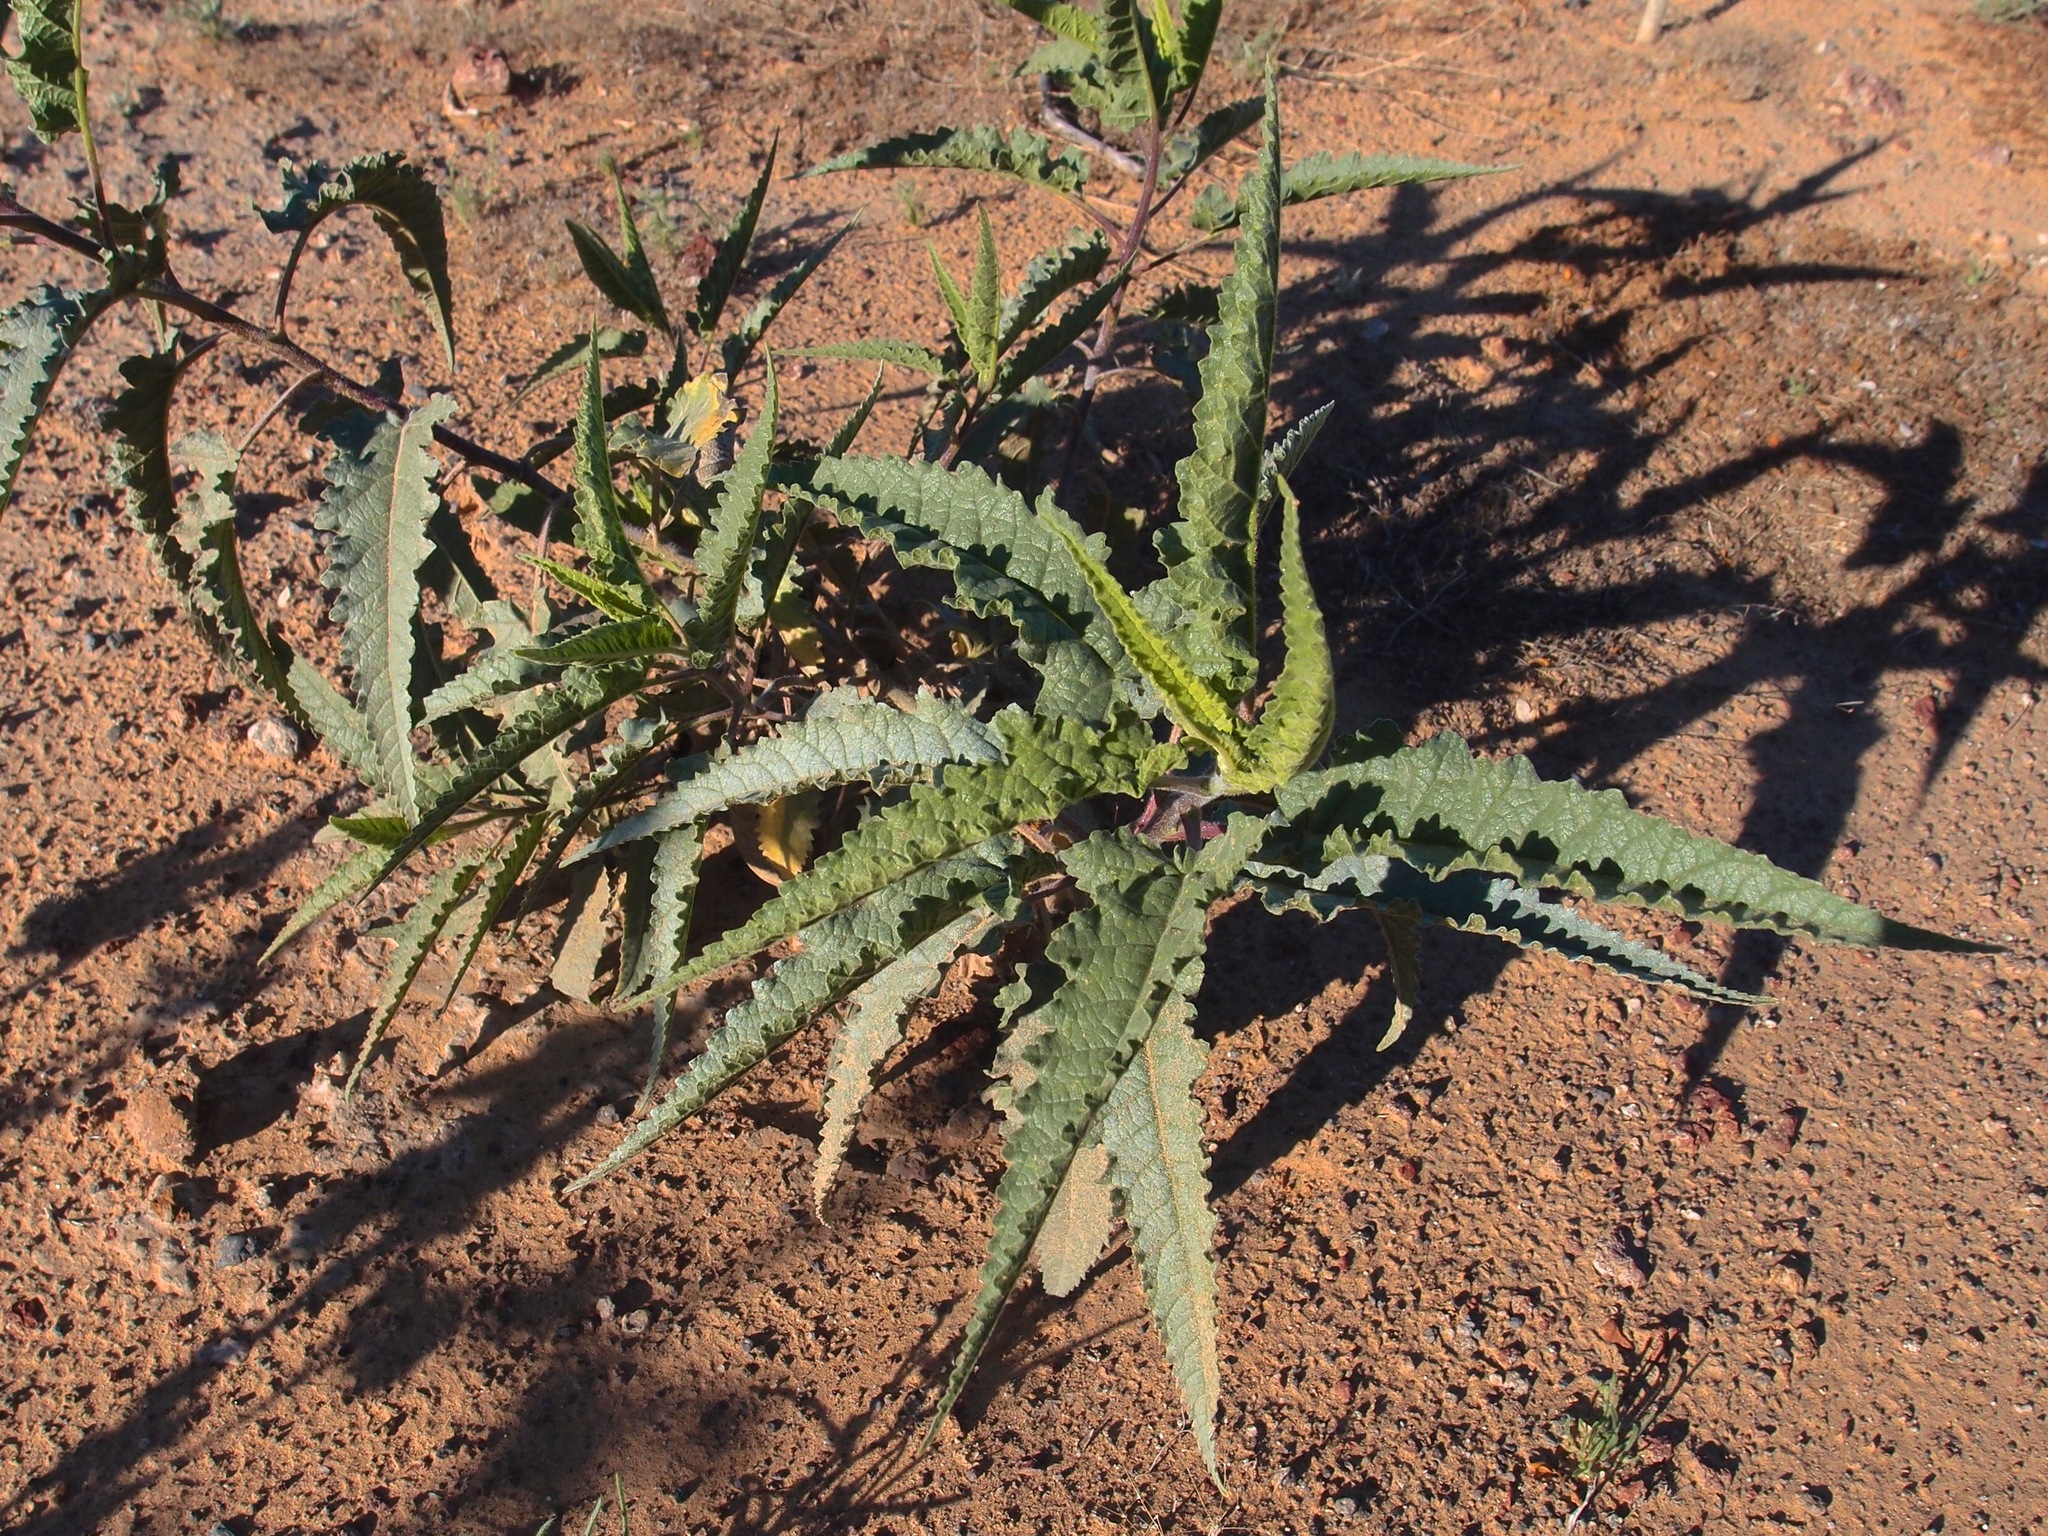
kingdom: Plantae
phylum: Tracheophyta
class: Magnoliopsida
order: Asterales
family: Asteraceae
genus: Ambrosia
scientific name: Ambrosia ambrosioides
